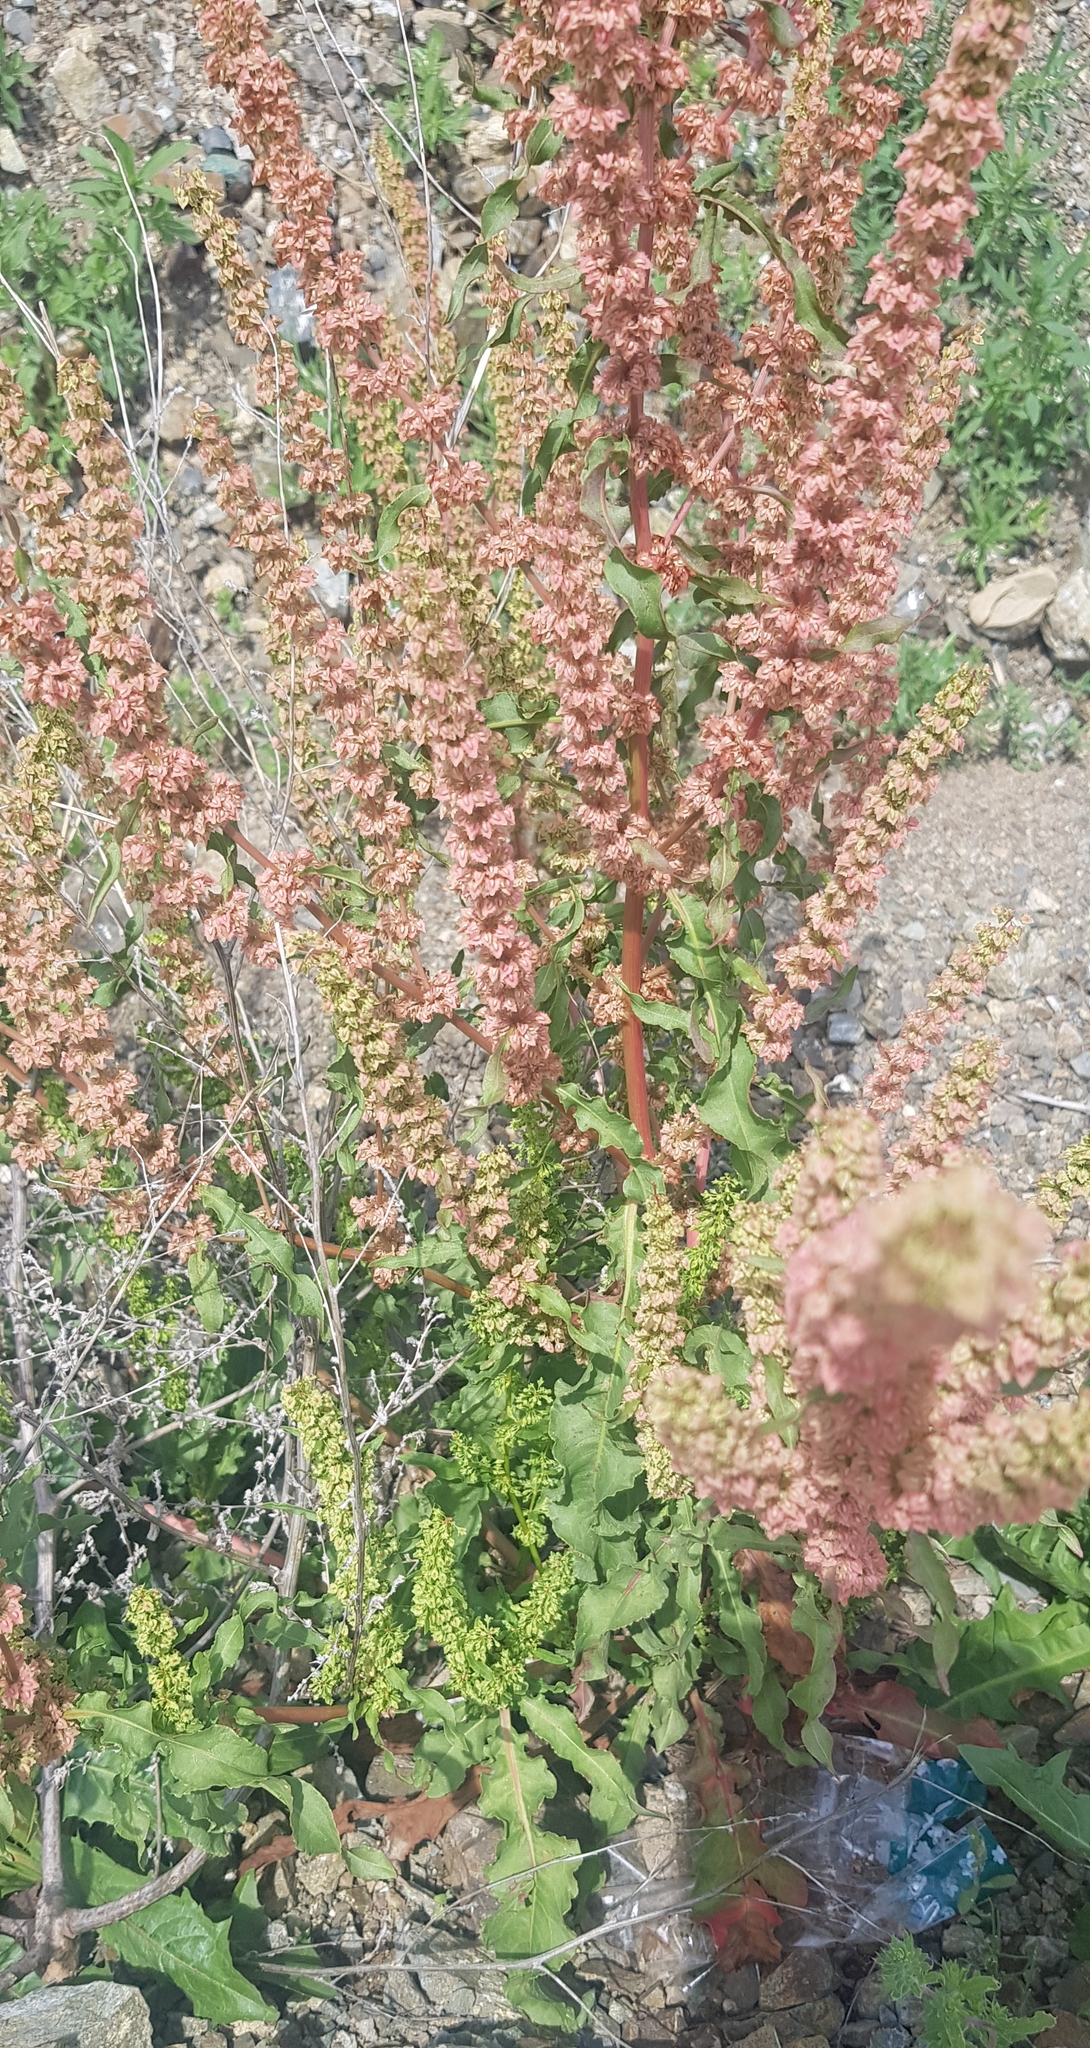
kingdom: Plantae
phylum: Tracheophyta
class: Magnoliopsida
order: Caryophyllales
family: Polygonaceae
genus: Rumex
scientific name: Rumex crispus
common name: Curled dock
